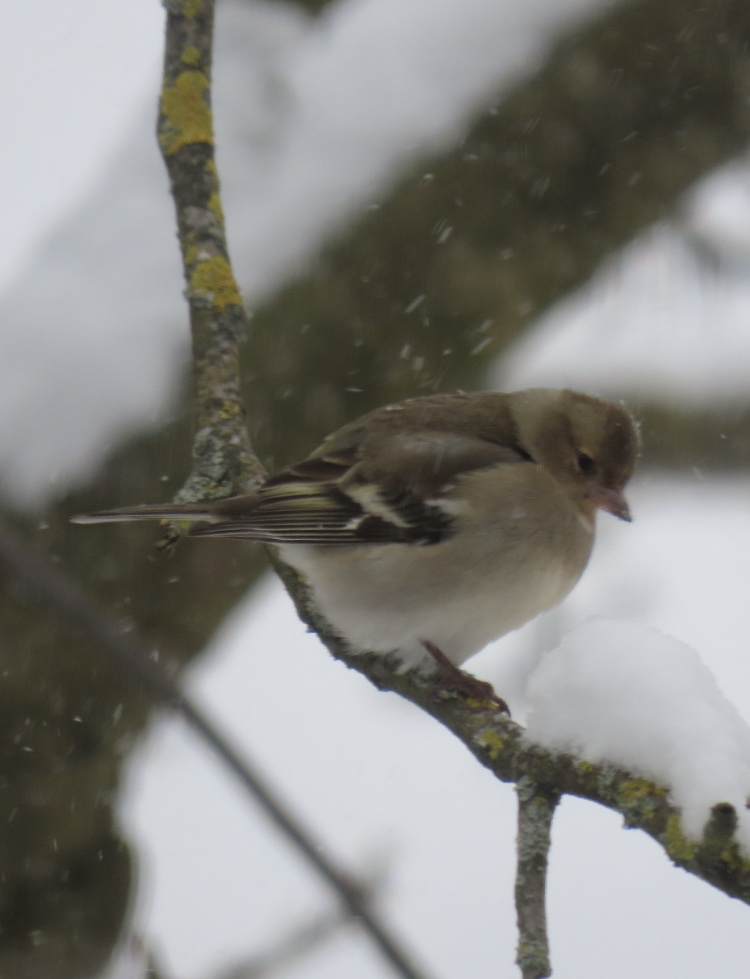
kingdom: Animalia
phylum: Chordata
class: Aves
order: Passeriformes
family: Fringillidae
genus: Fringilla
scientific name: Fringilla coelebs
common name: Common chaffinch
